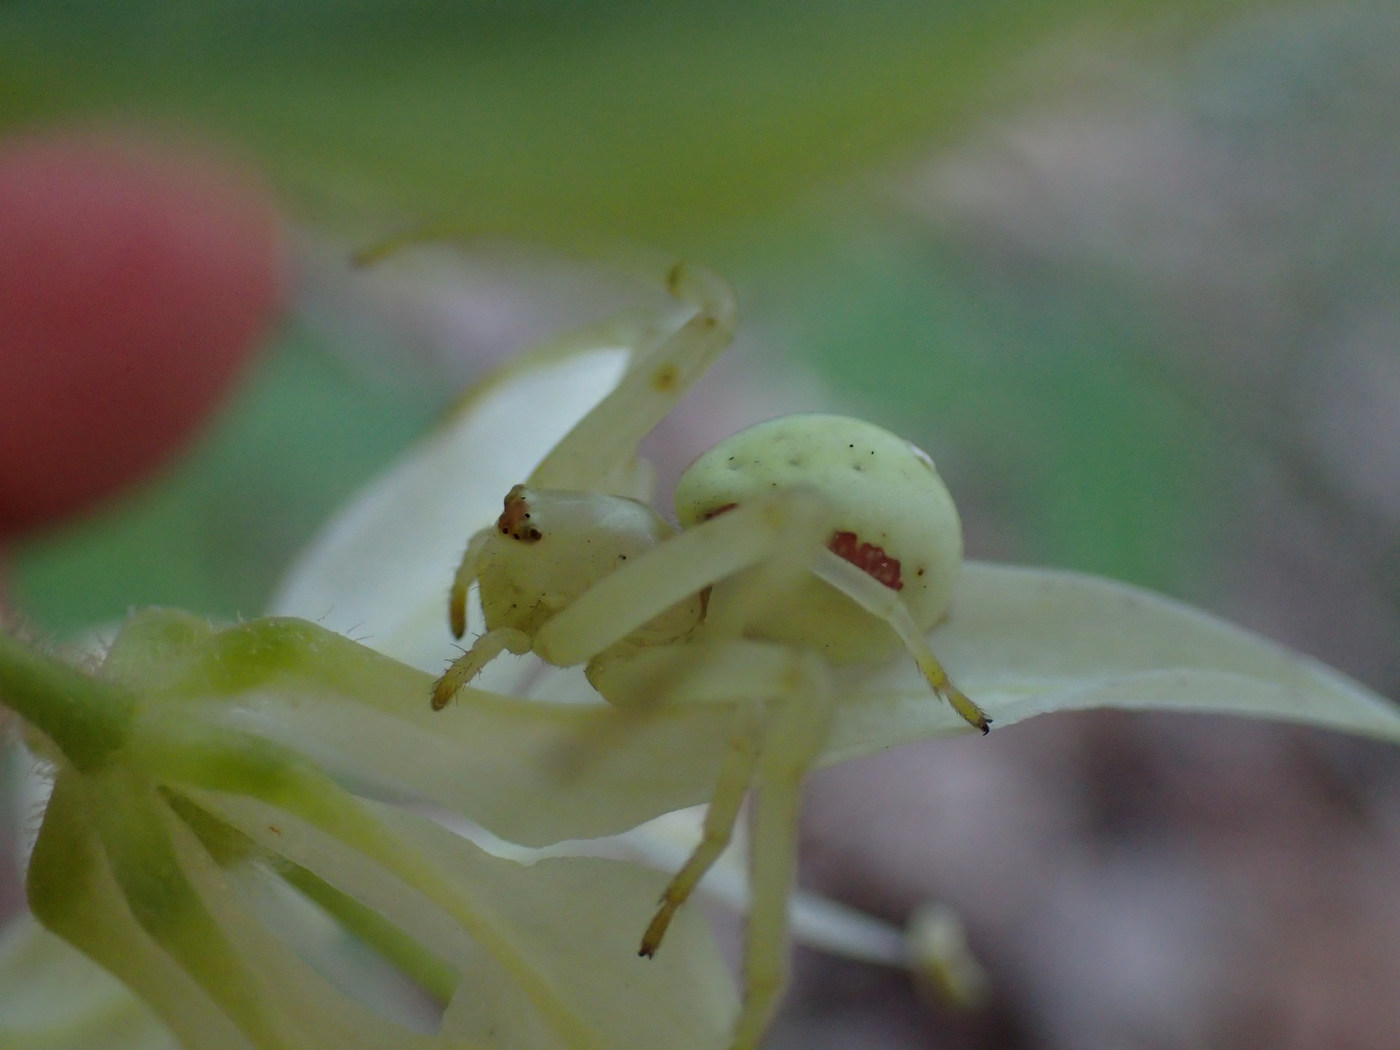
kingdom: Animalia
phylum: Arthropoda
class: Arachnida
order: Araneae
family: Thomisidae
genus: Misumena
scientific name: Misumena vatia
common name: Goldenrod crab spider
